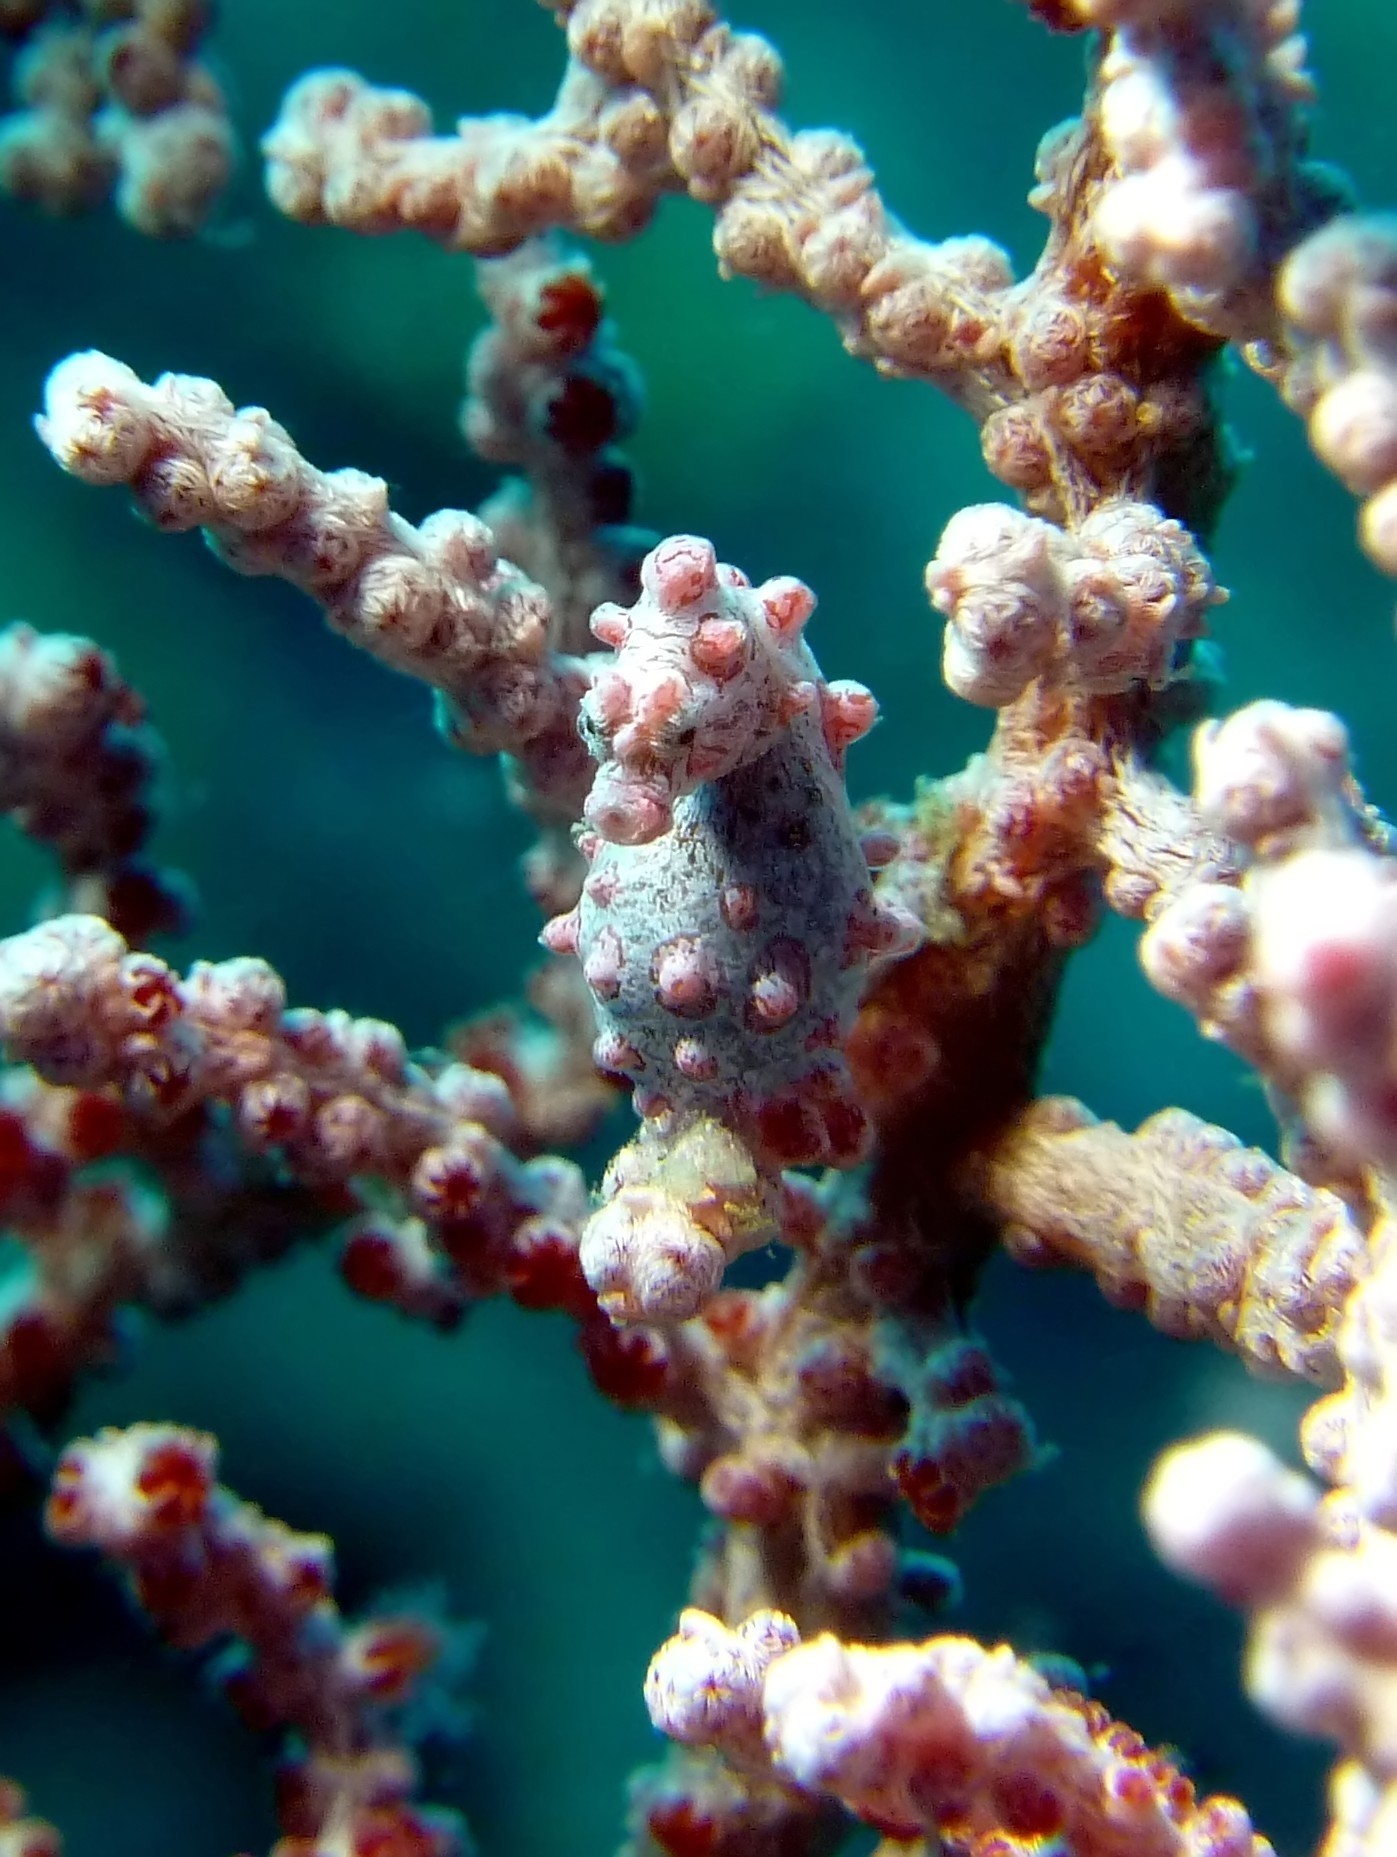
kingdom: Animalia
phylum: Chordata
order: Syngnathiformes
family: Syngnathidae
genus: Hippocampus
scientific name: Hippocampus bargibanti
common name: Bargibant's seahorse
